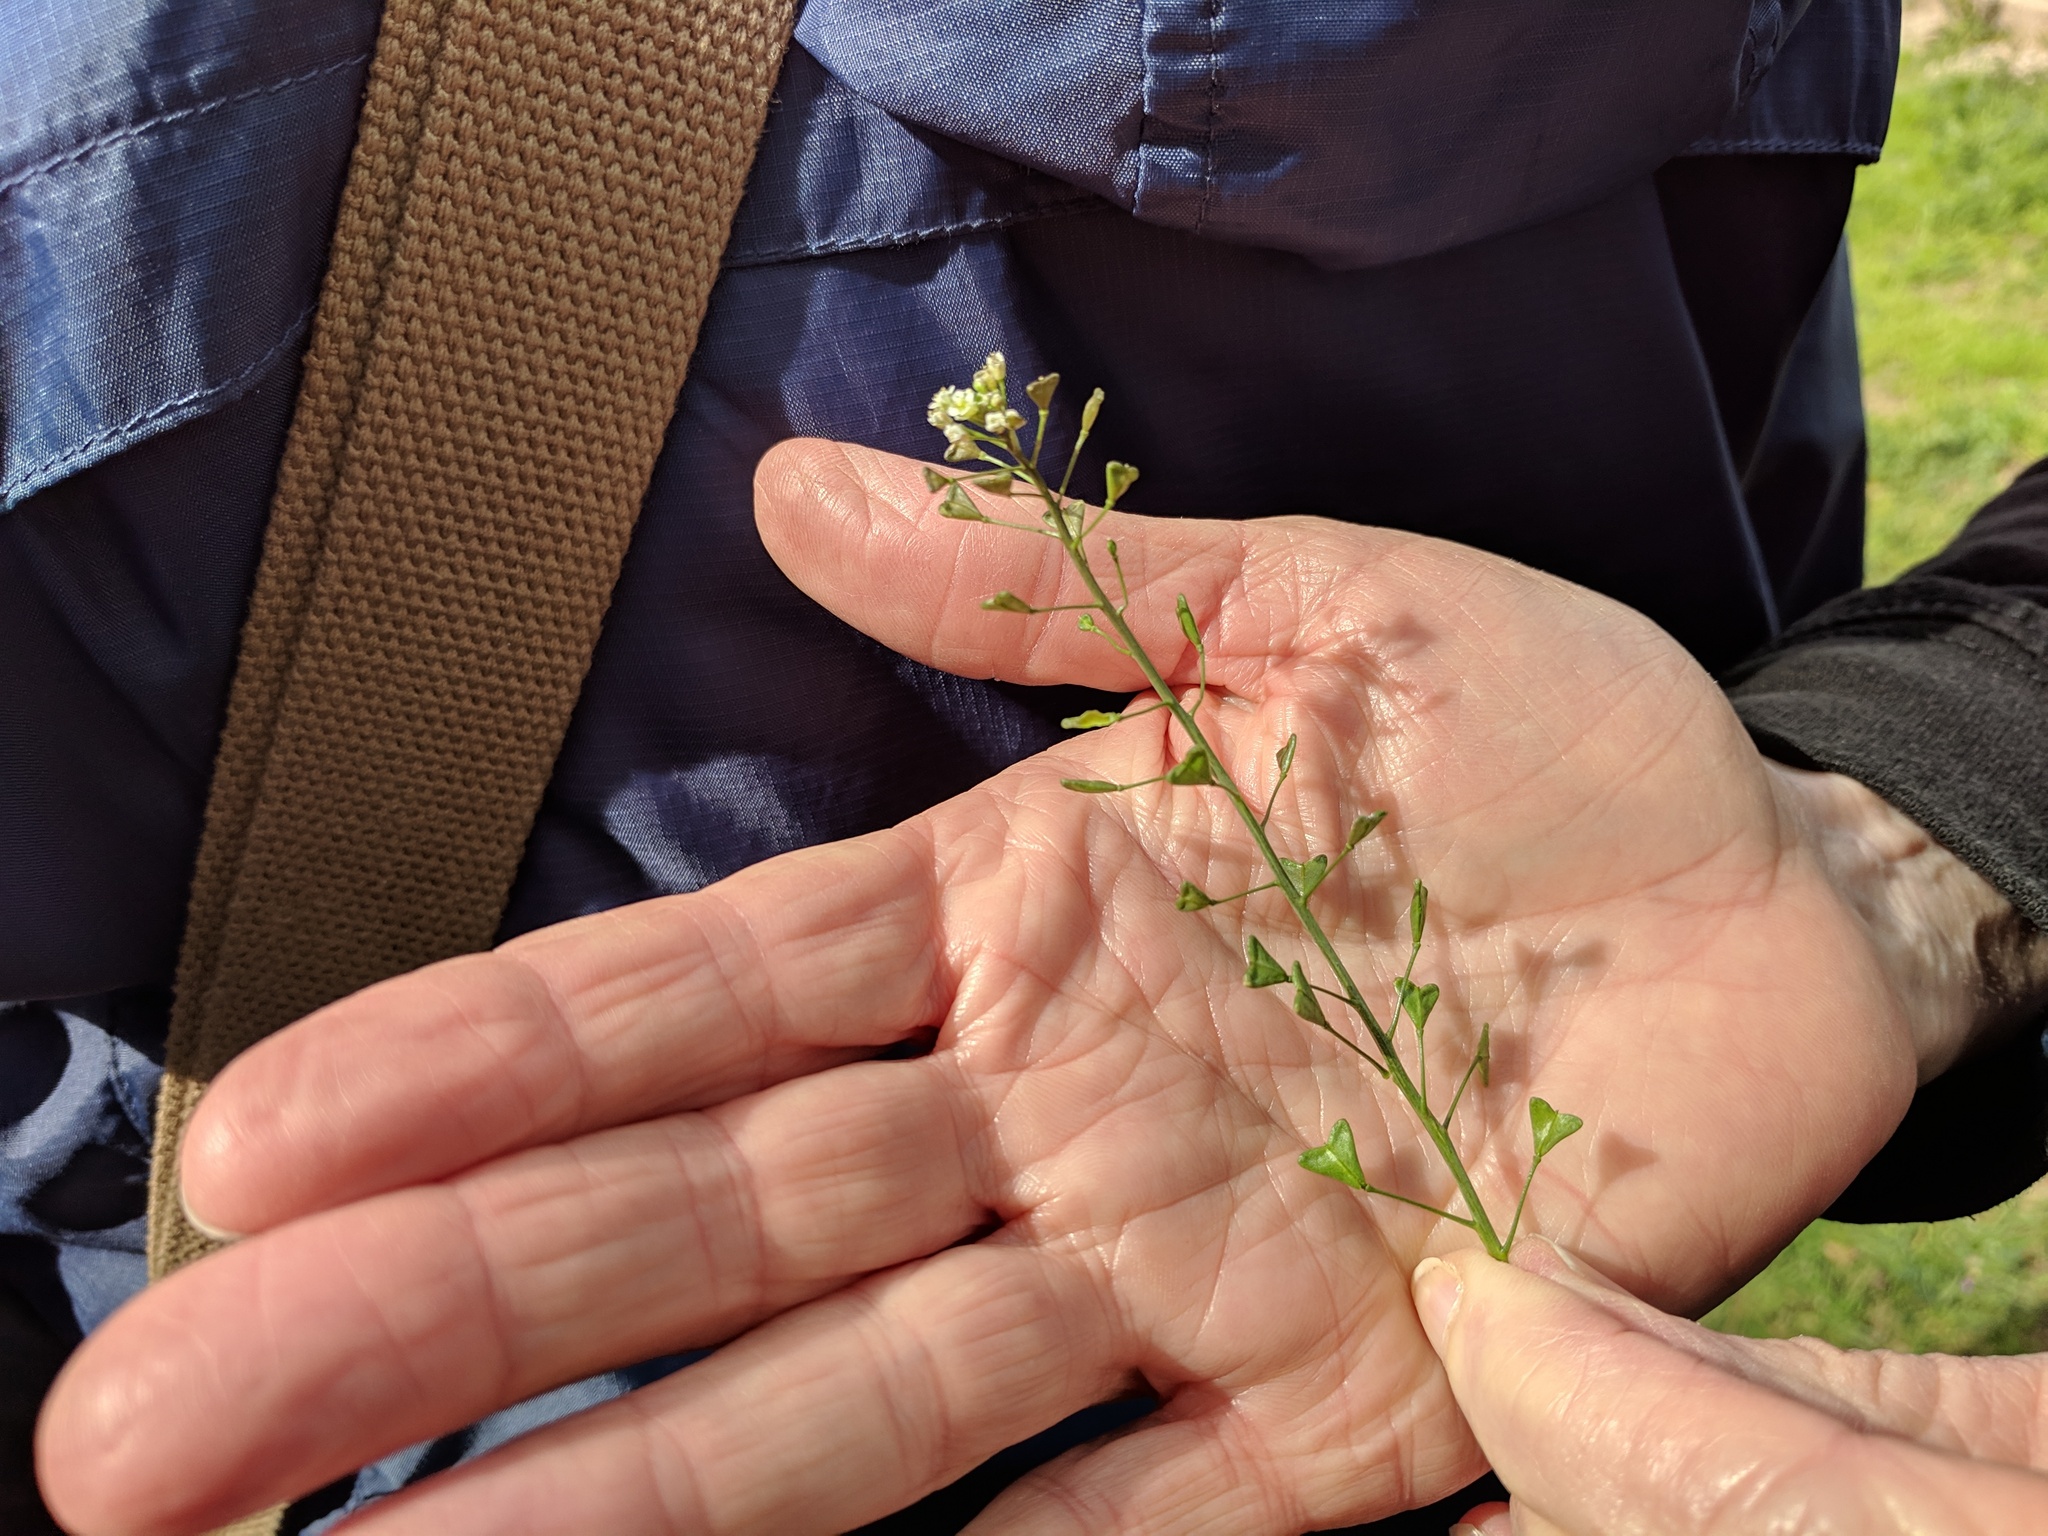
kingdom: Plantae
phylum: Tracheophyta
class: Magnoliopsida
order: Brassicales
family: Brassicaceae
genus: Capsella
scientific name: Capsella bursa-pastoris
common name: Shepherd's purse
